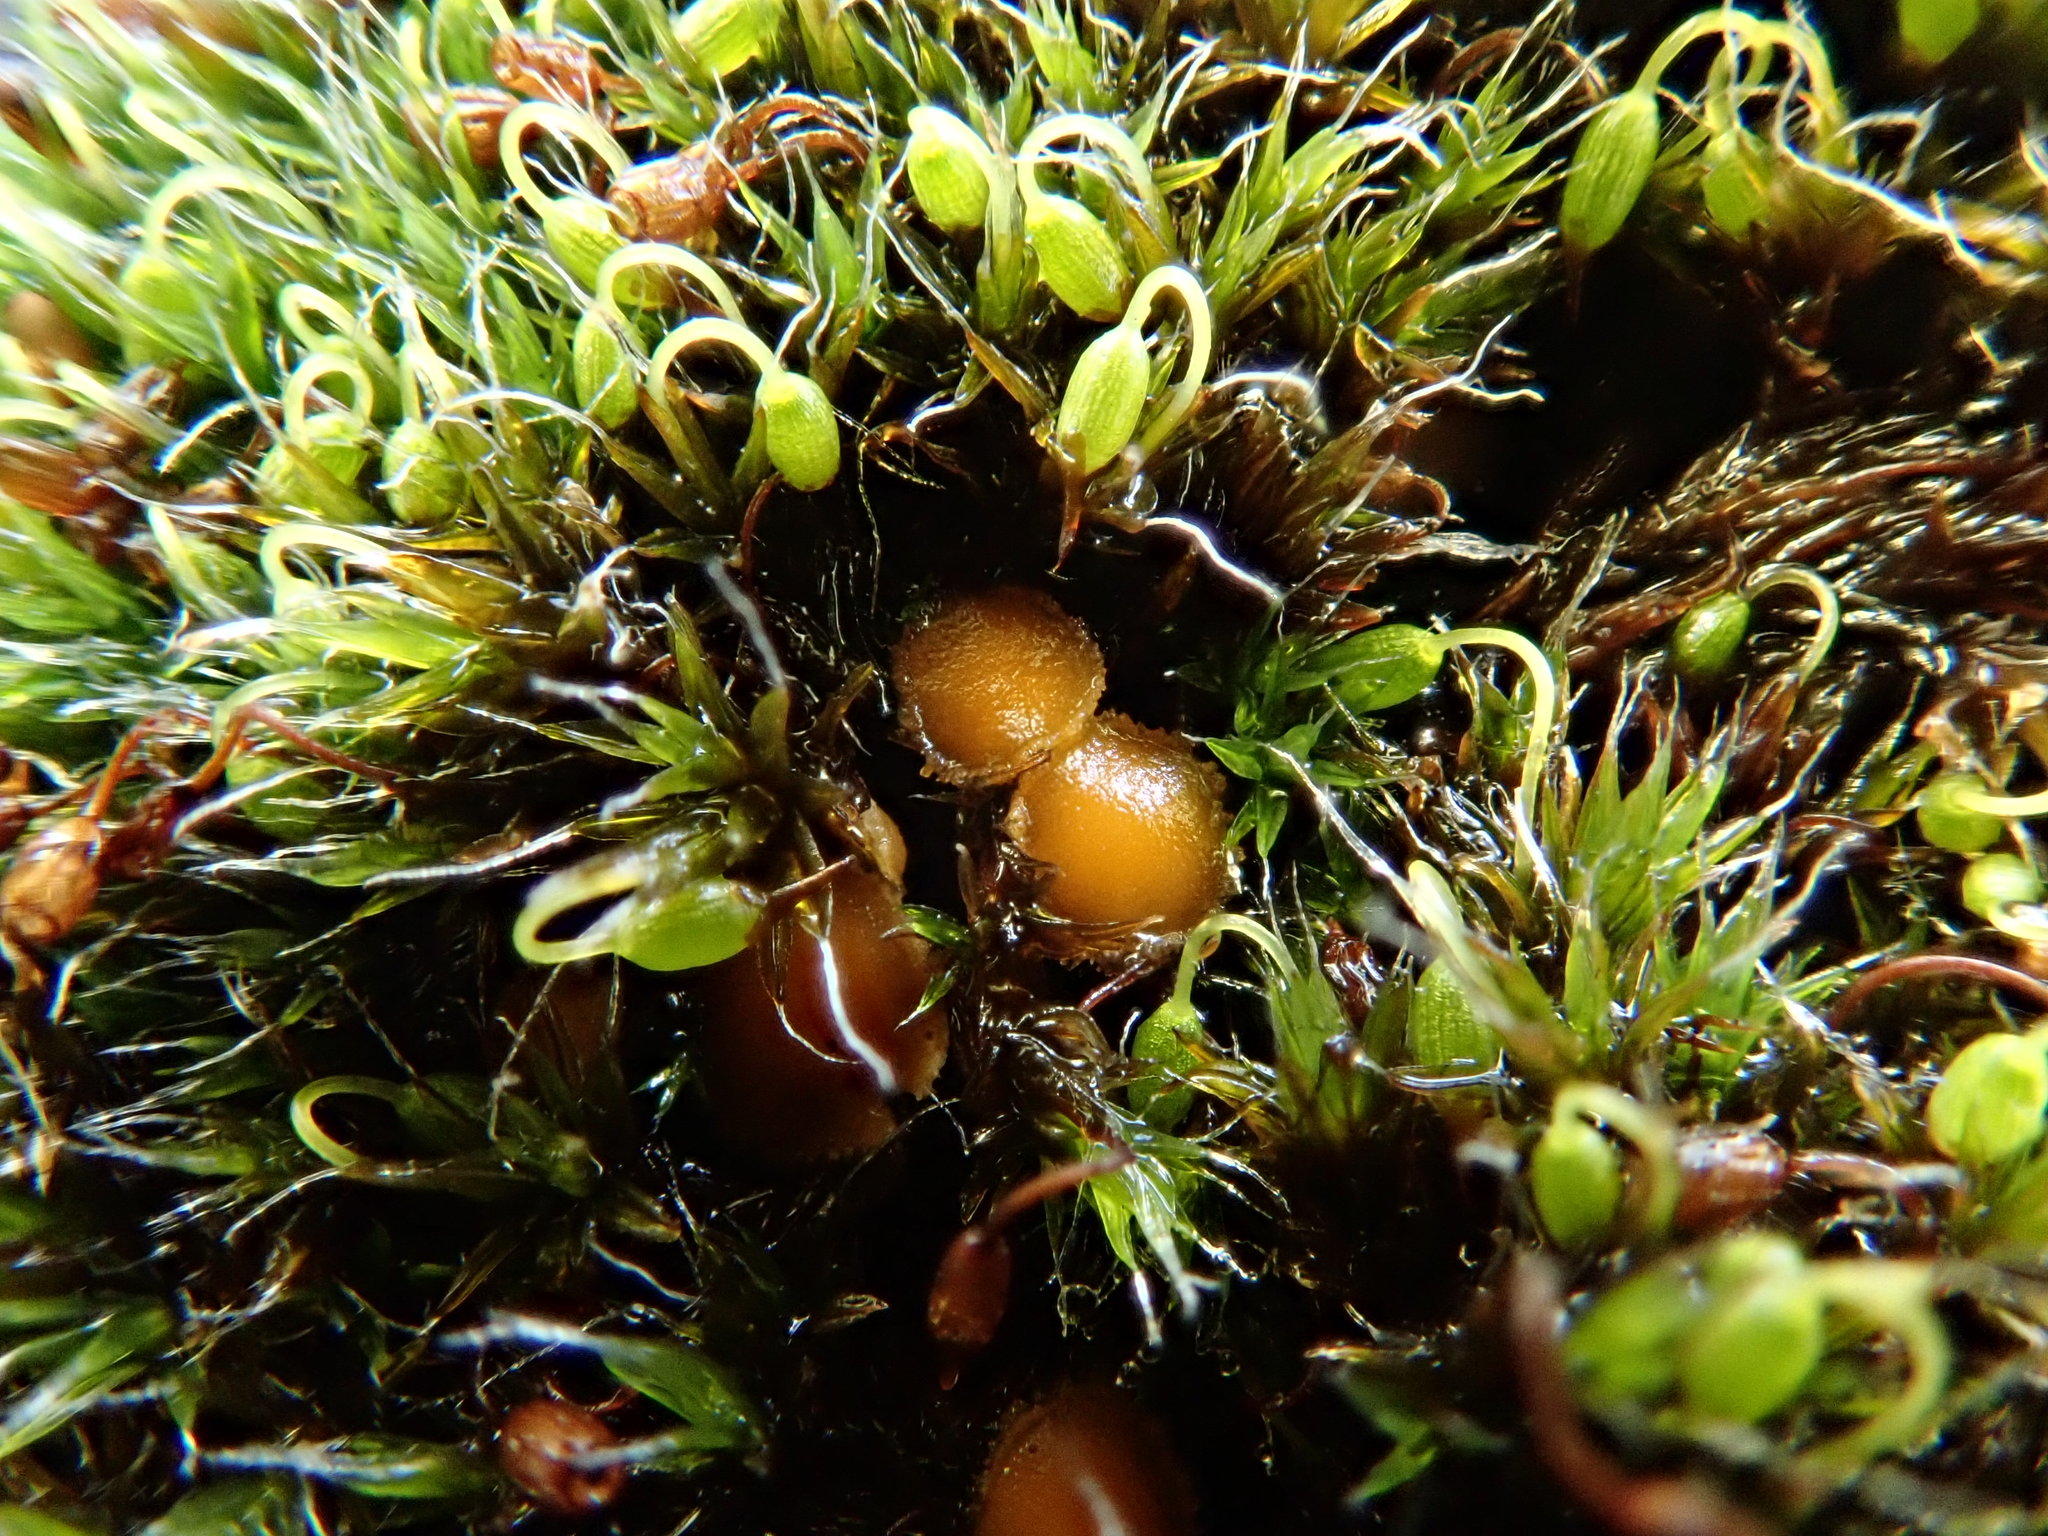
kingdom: Fungi
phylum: Ascomycota
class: Pezizomycetes
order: Pezizales
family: Pyronemataceae
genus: Octospora
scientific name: Octospora musci-muralis
